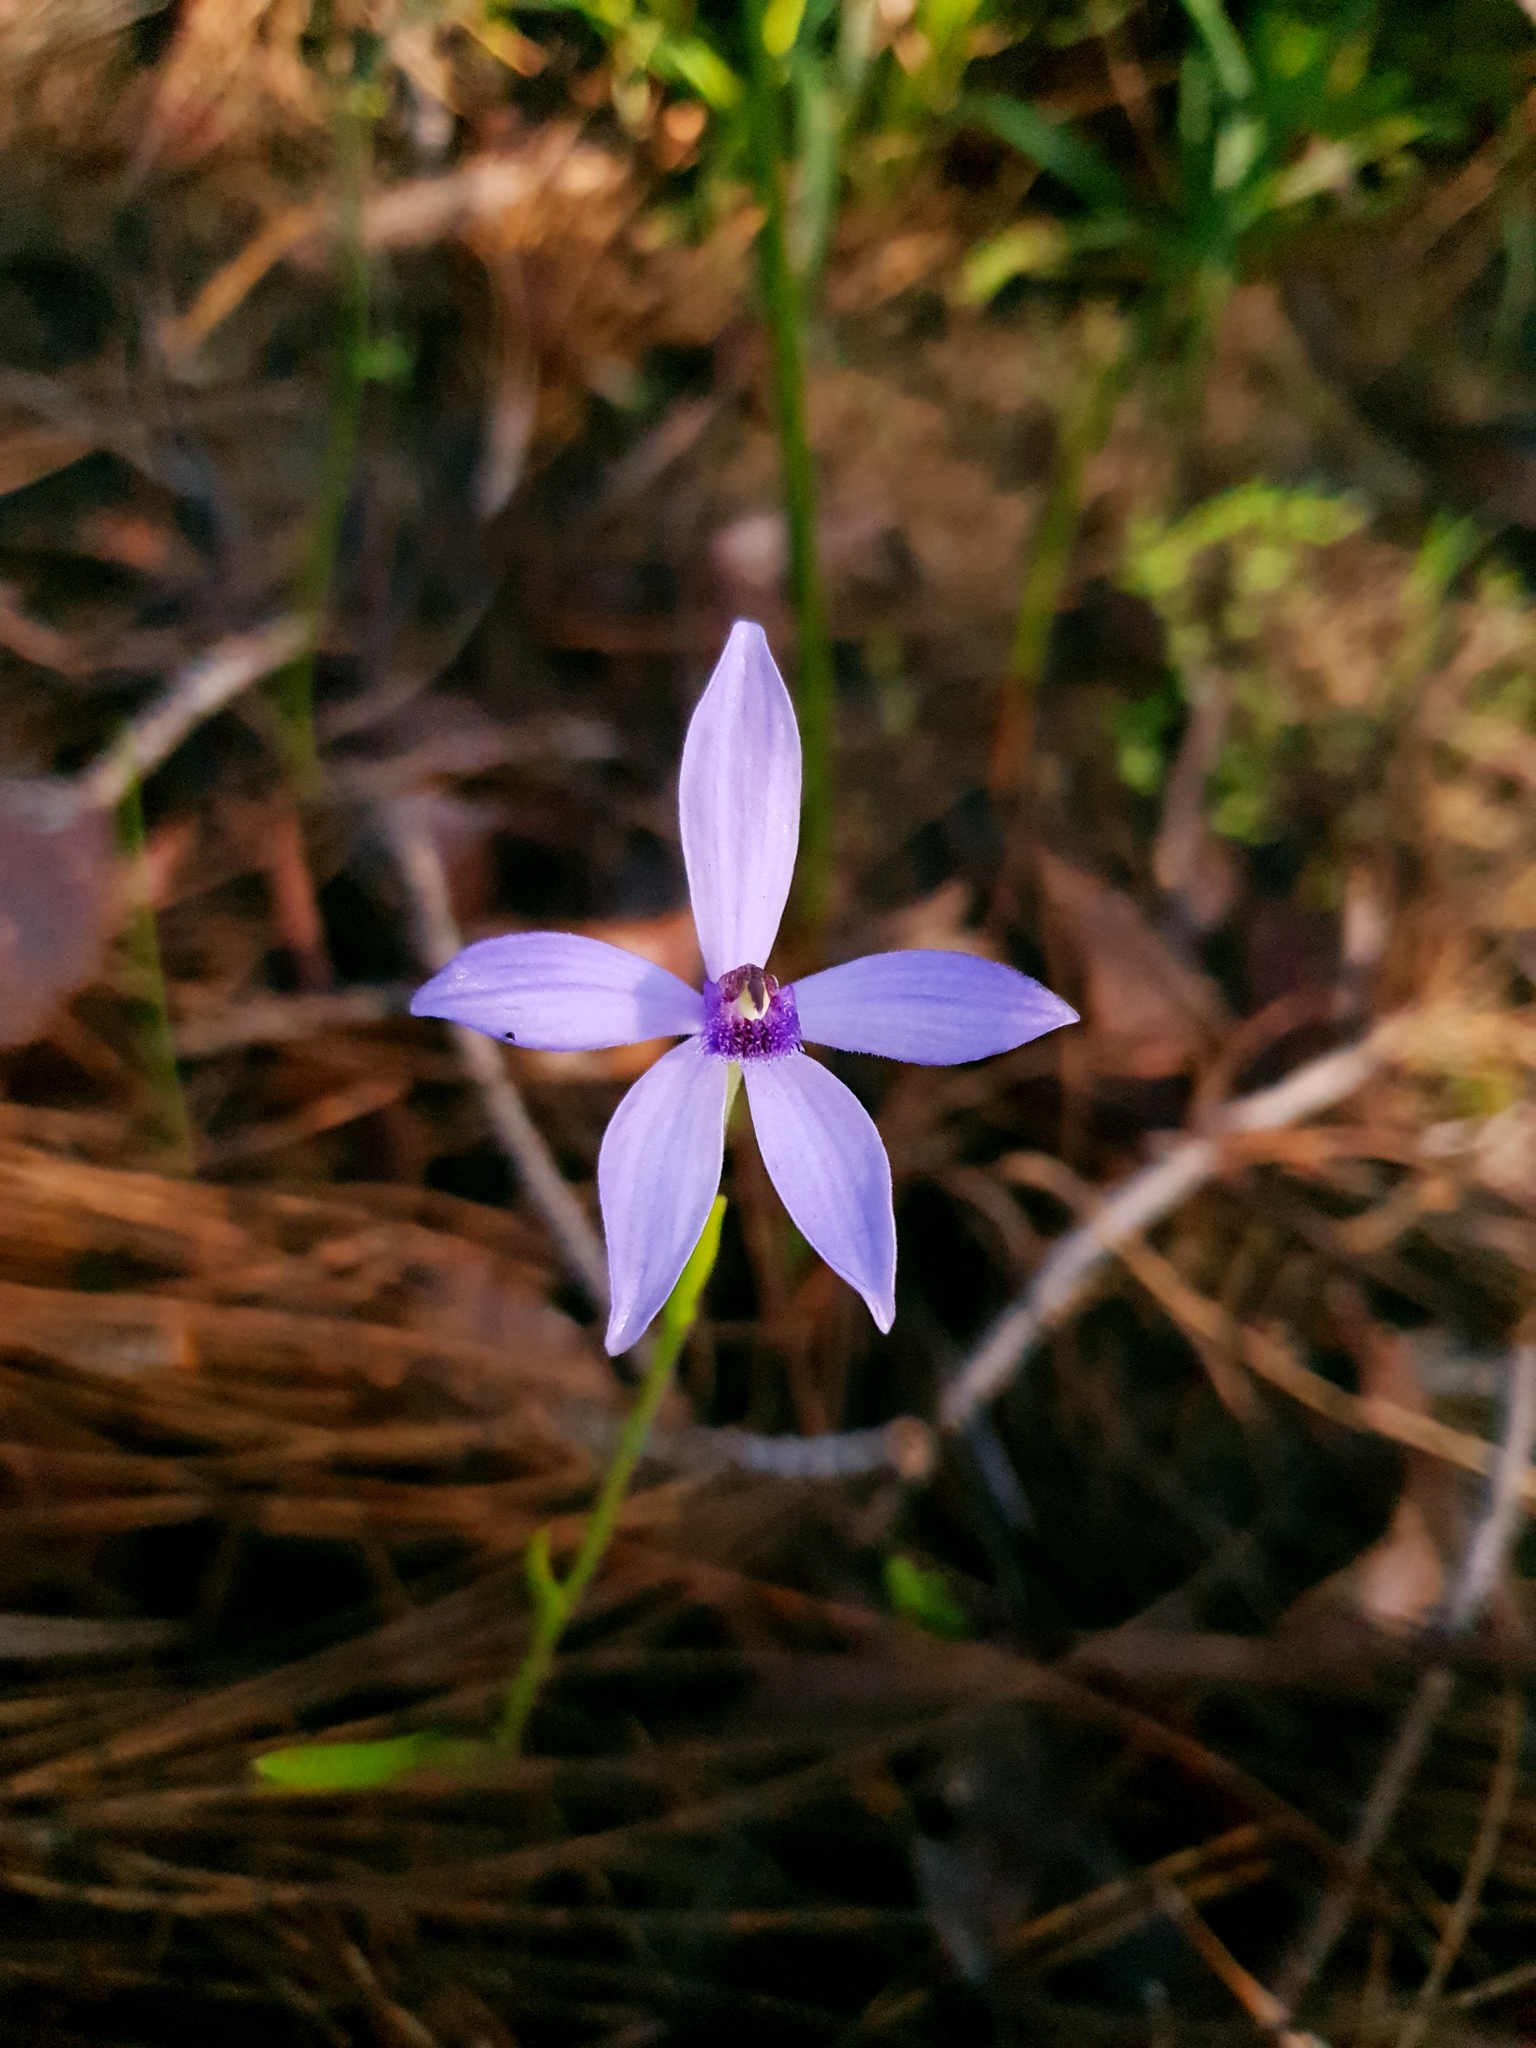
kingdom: Plantae
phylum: Tracheophyta
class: Liliopsida
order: Asparagales
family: Orchidaceae
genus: Pheladenia
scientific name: Pheladenia deformis
